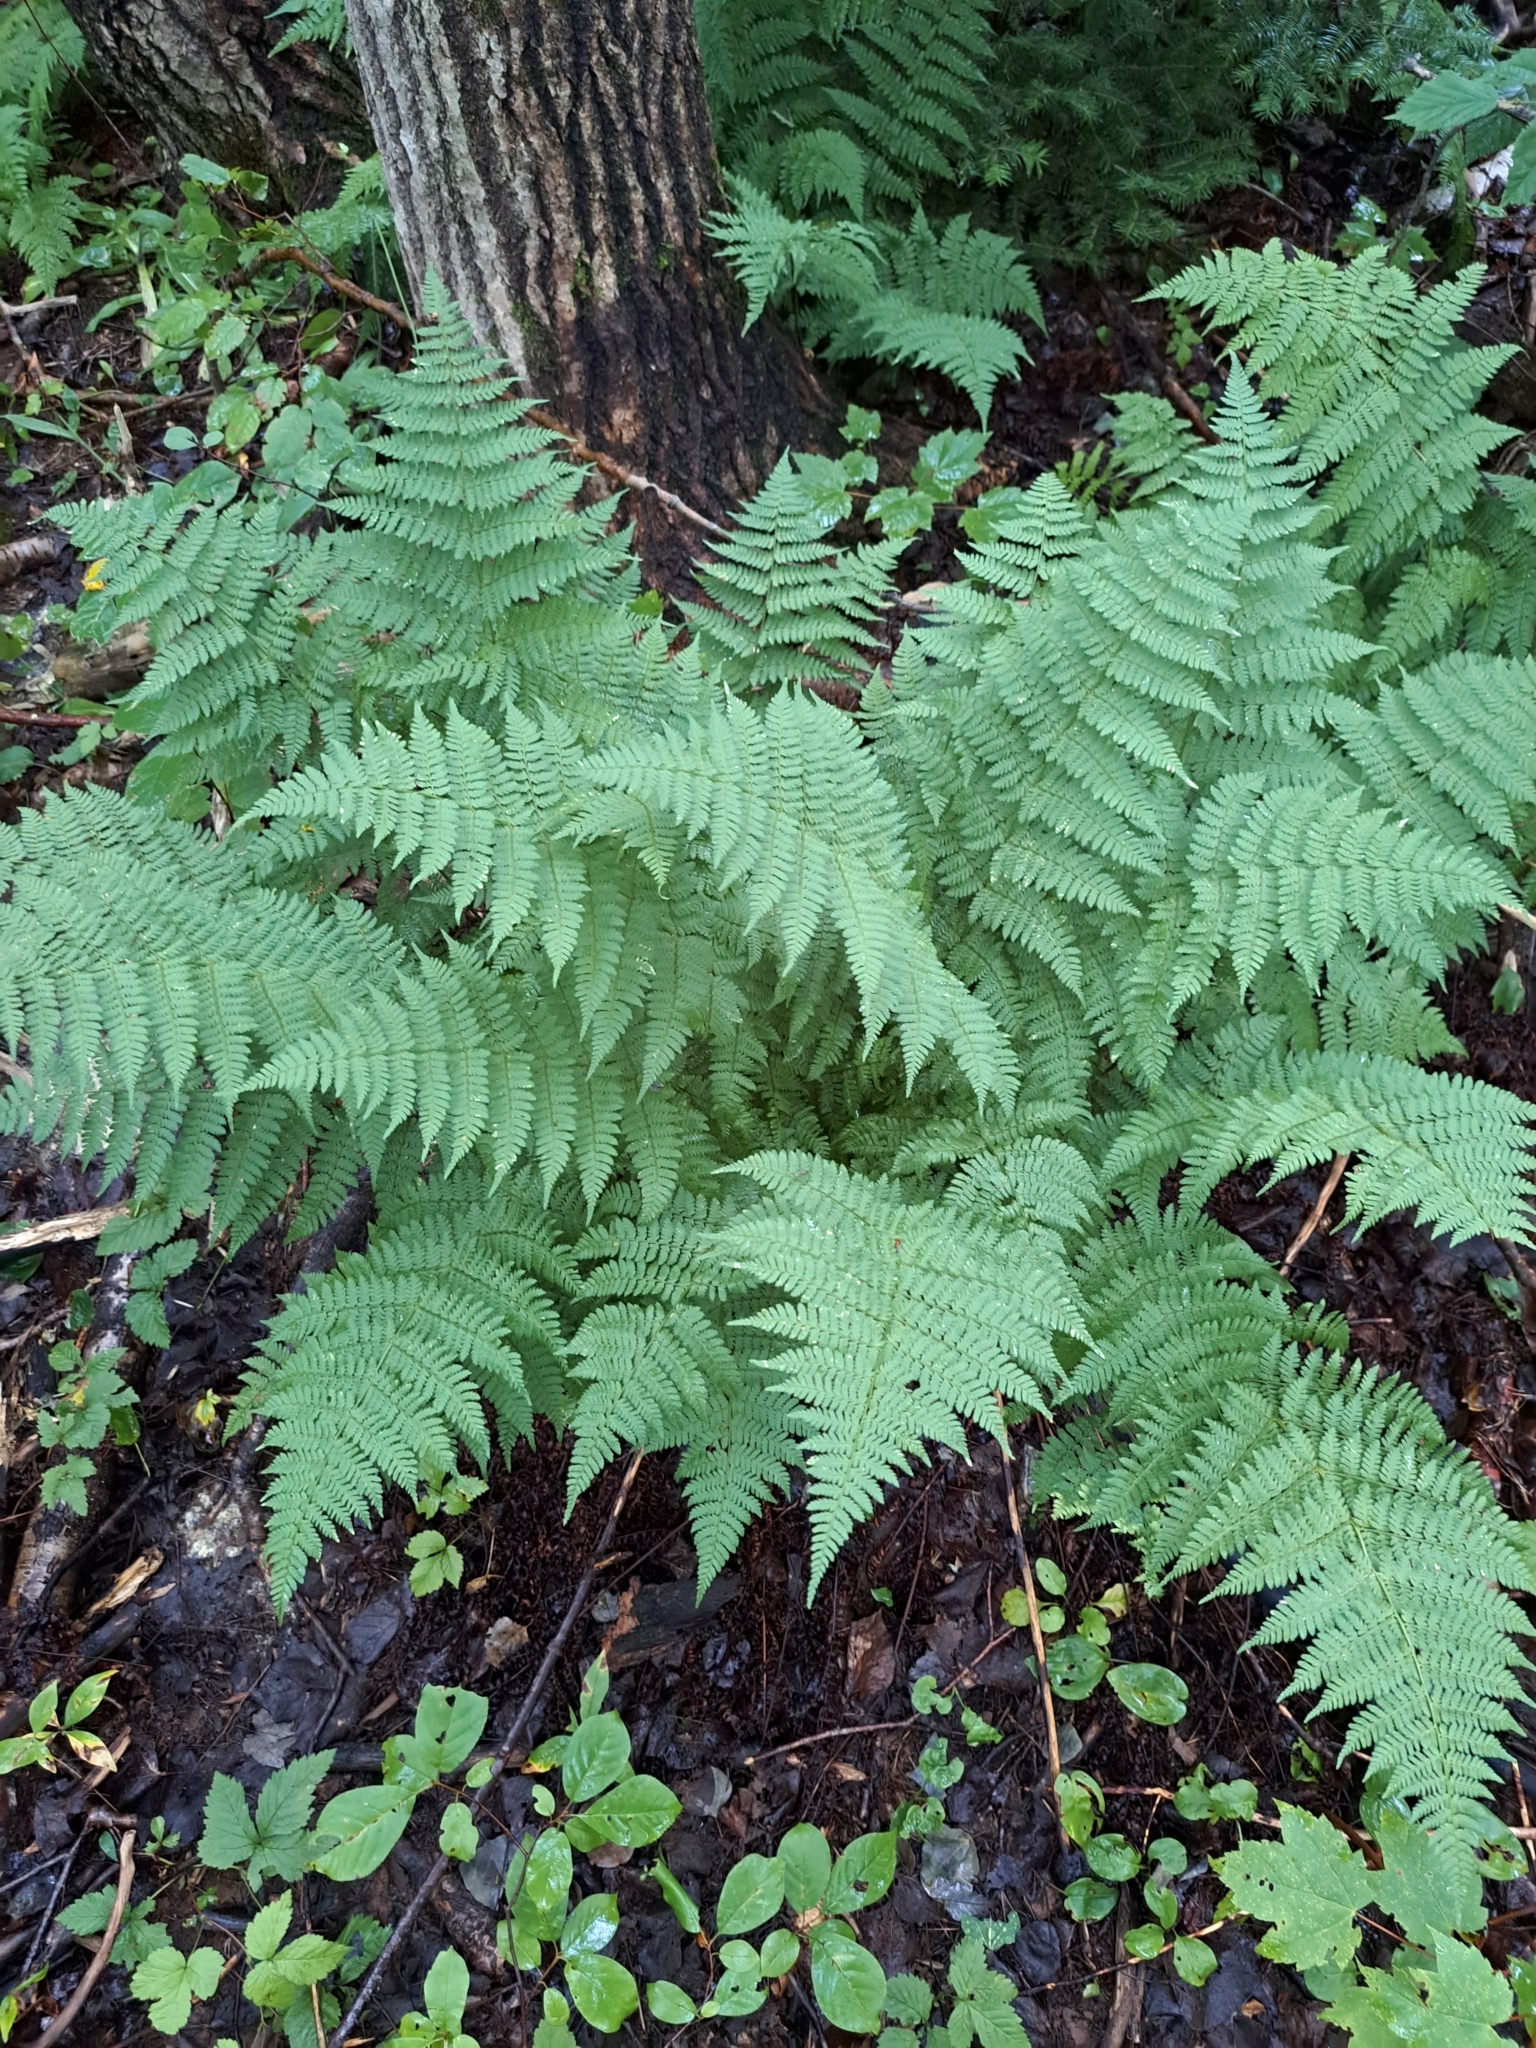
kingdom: Plantae
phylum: Tracheophyta
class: Polypodiopsida
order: Polypodiales
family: Dryopteridaceae
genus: Dryopteris
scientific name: Dryopteris intermedia
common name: Evergreen wood fern
